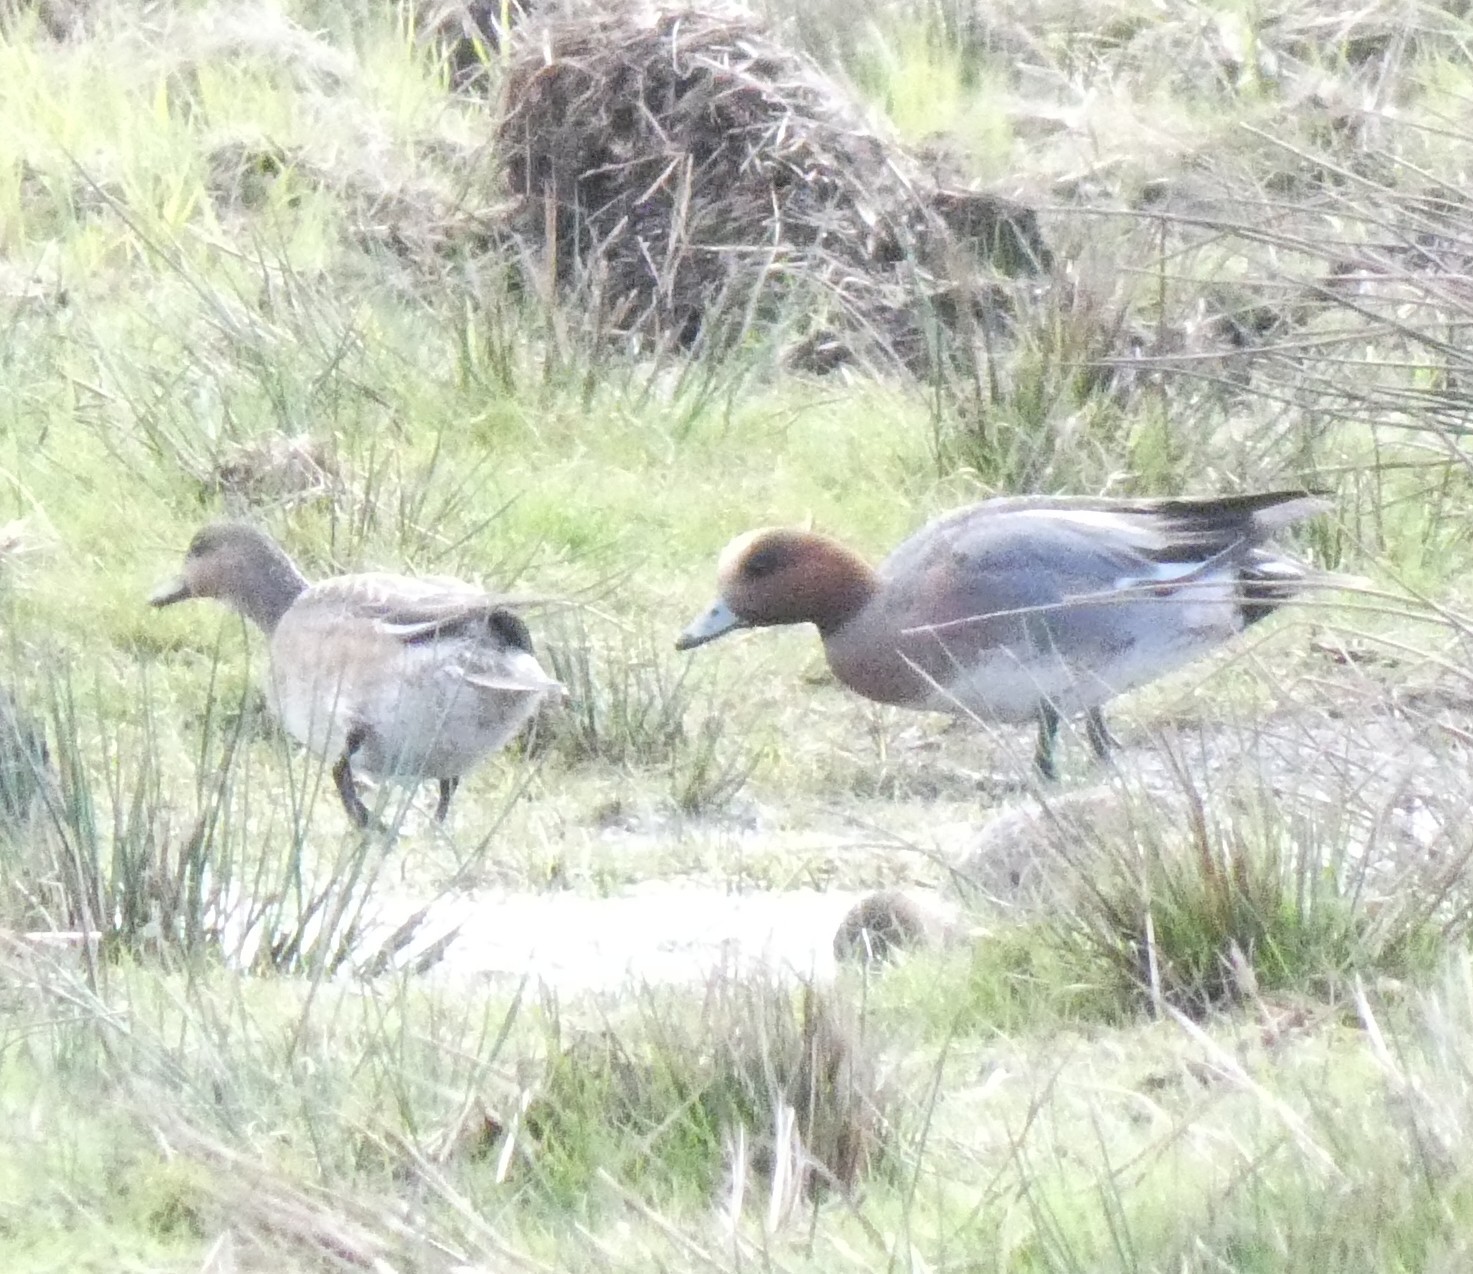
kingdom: Animalia
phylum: Chordata
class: Aves
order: Anseriformes
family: Anatidae
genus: Mareca
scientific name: Mareca penelope
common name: Eurasian wigeon
